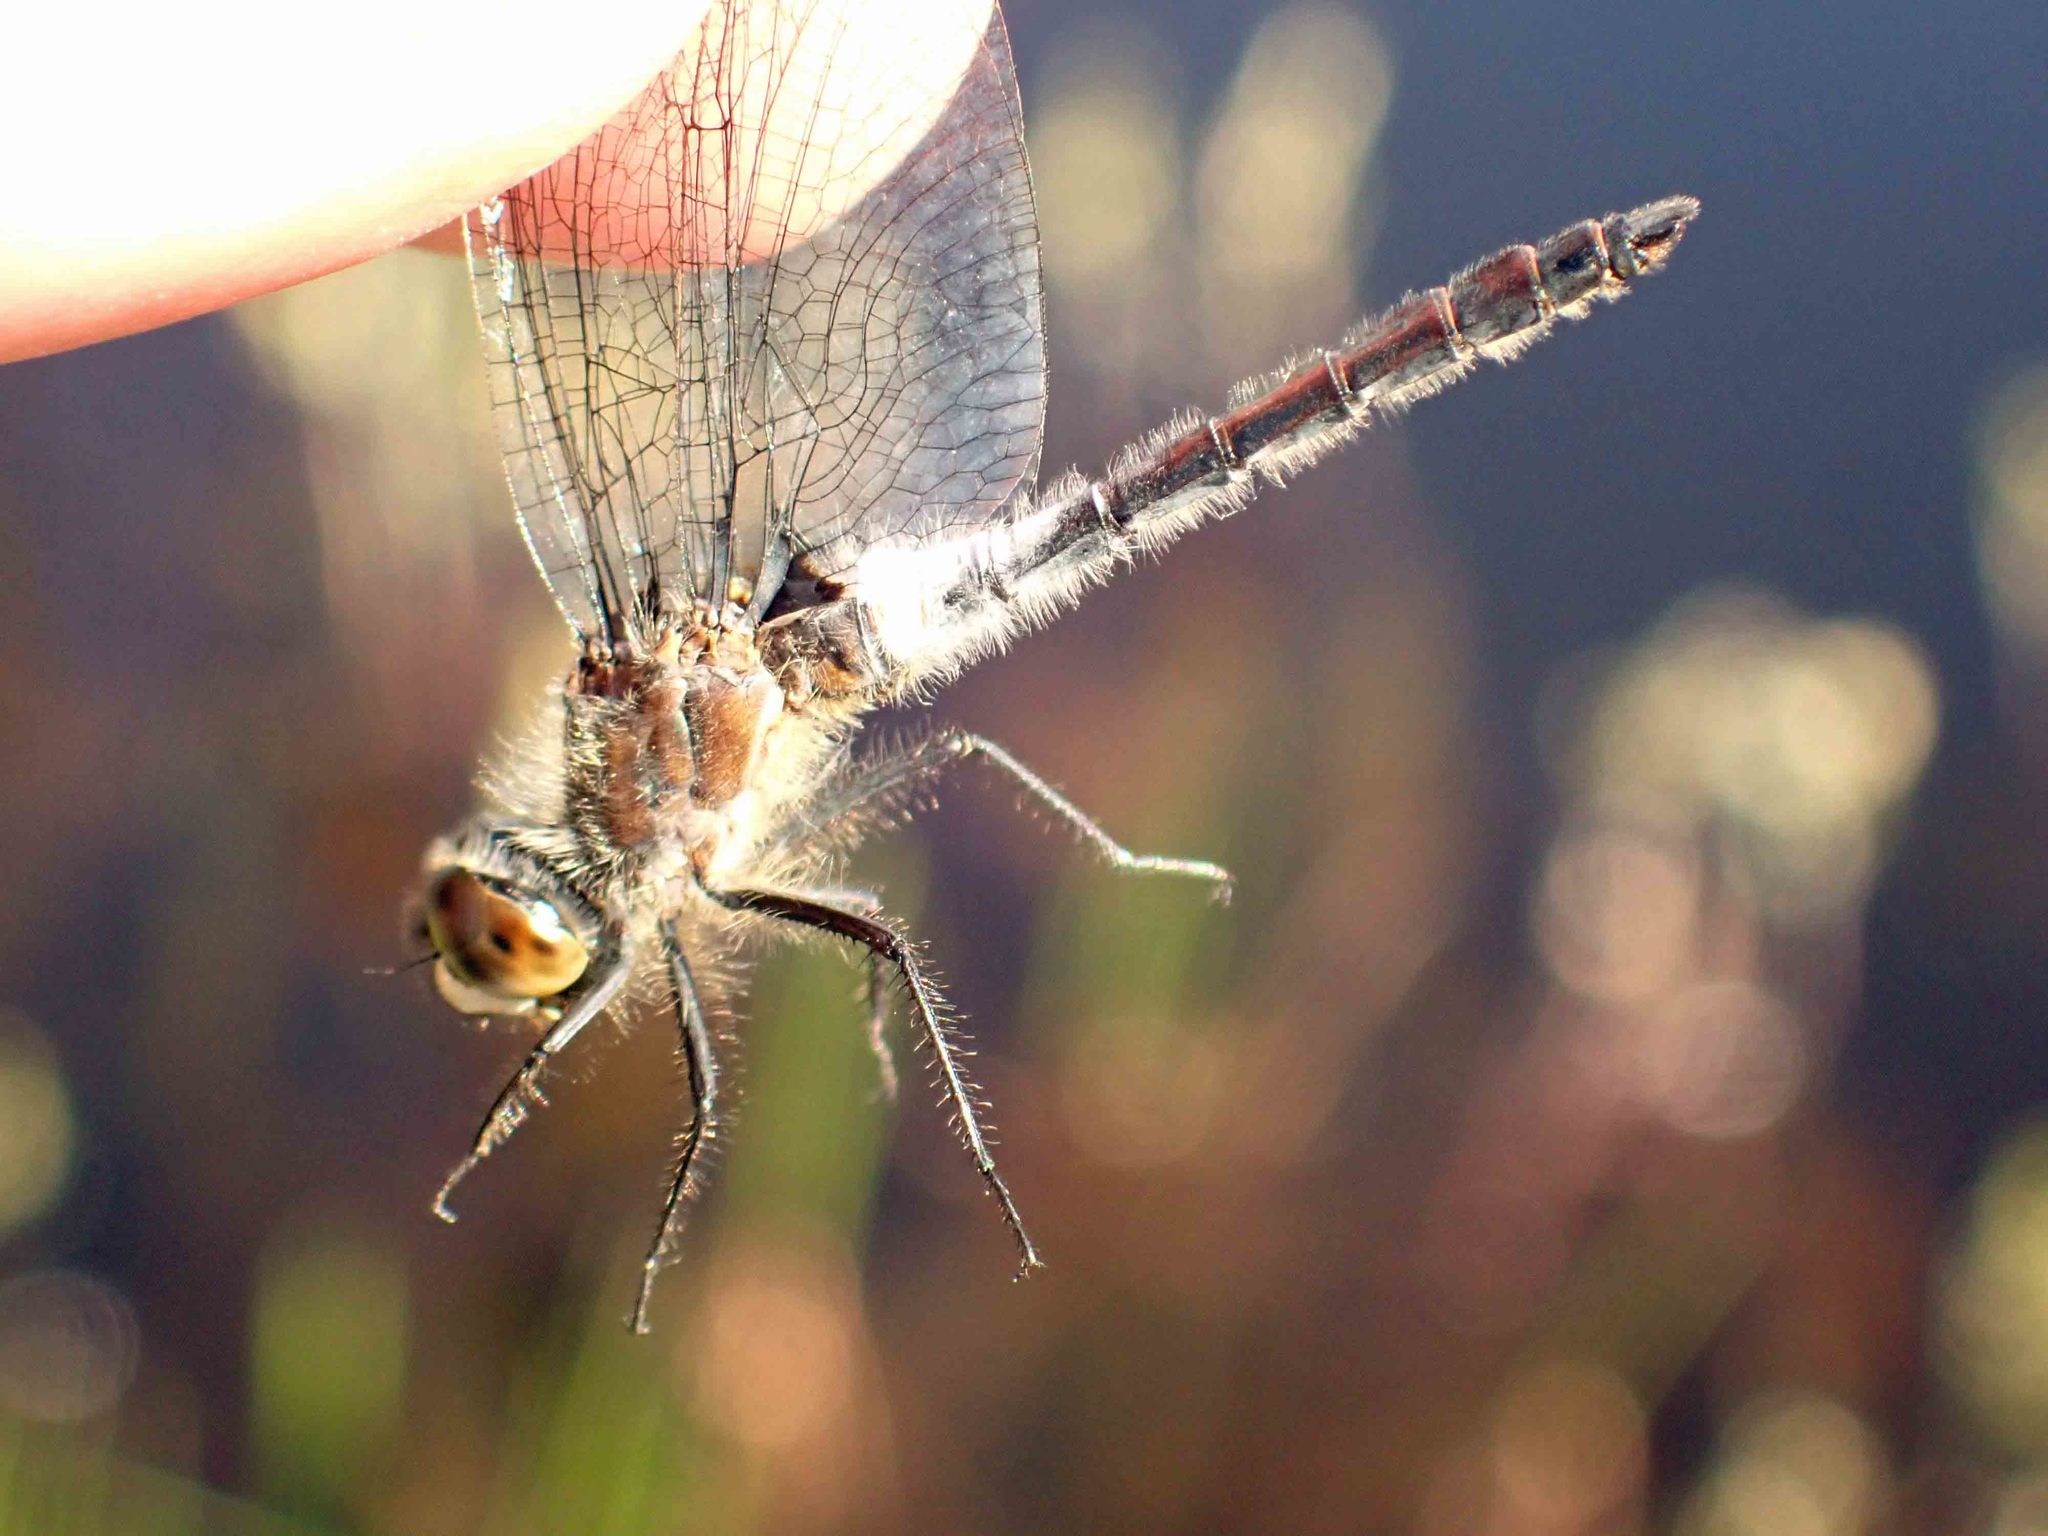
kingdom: Animalia
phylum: Arthropoda
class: Insecta
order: Odonata
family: Libellulidae
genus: Leucorrhinia
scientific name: Leucorrhinia frigida
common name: Frosted whiteface
